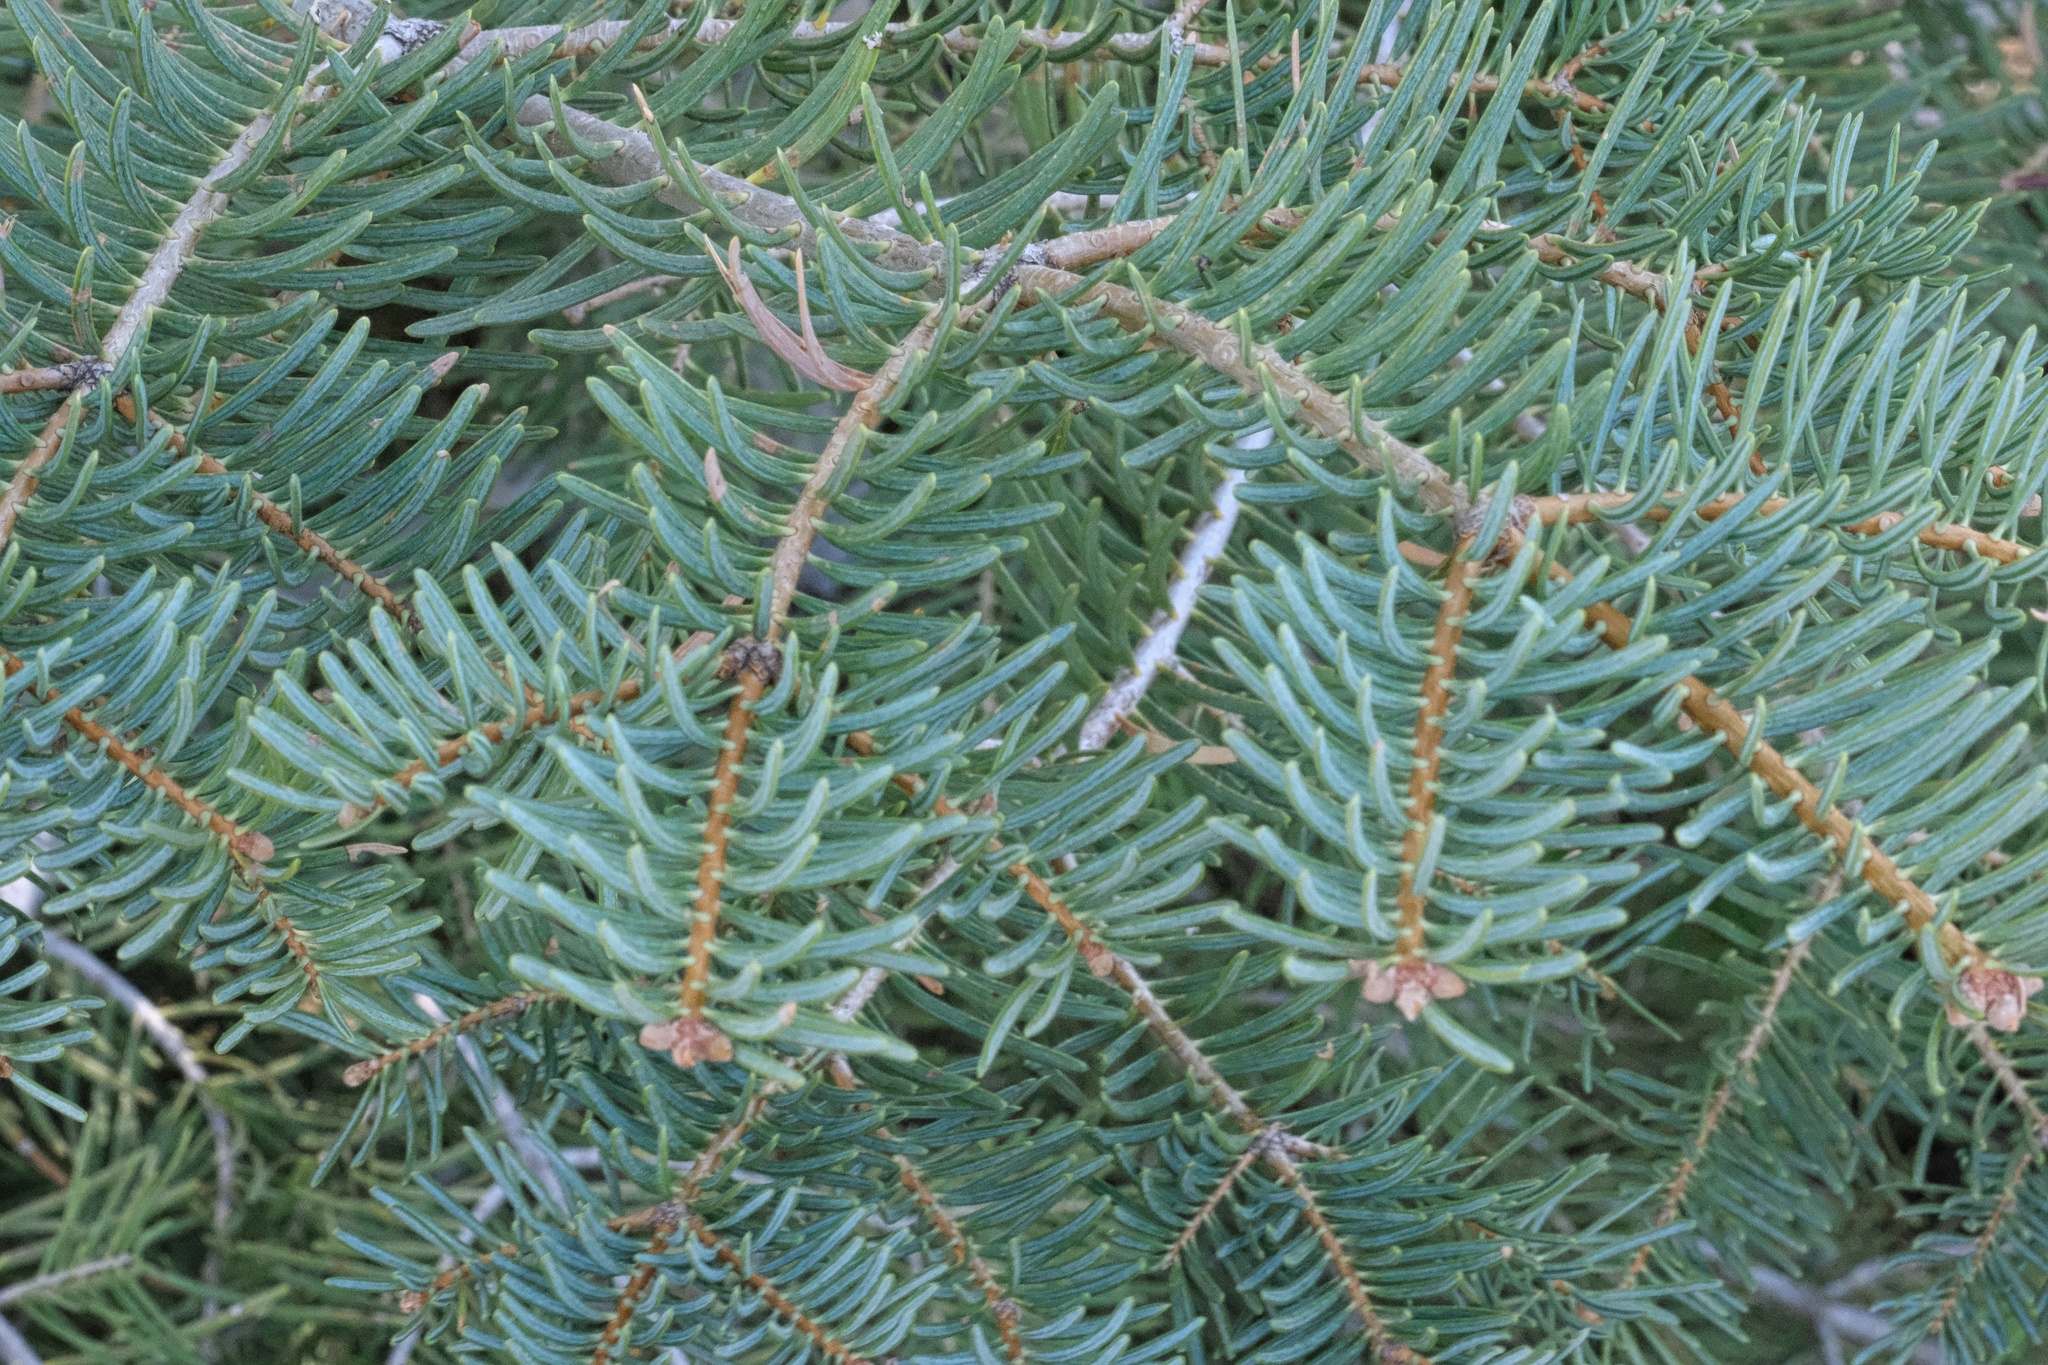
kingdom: Plantae
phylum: Tracheophyta
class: Pinopsida
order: Pinales
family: Pinaceae
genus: Abies
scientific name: Abies concolor
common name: Colorado fir
